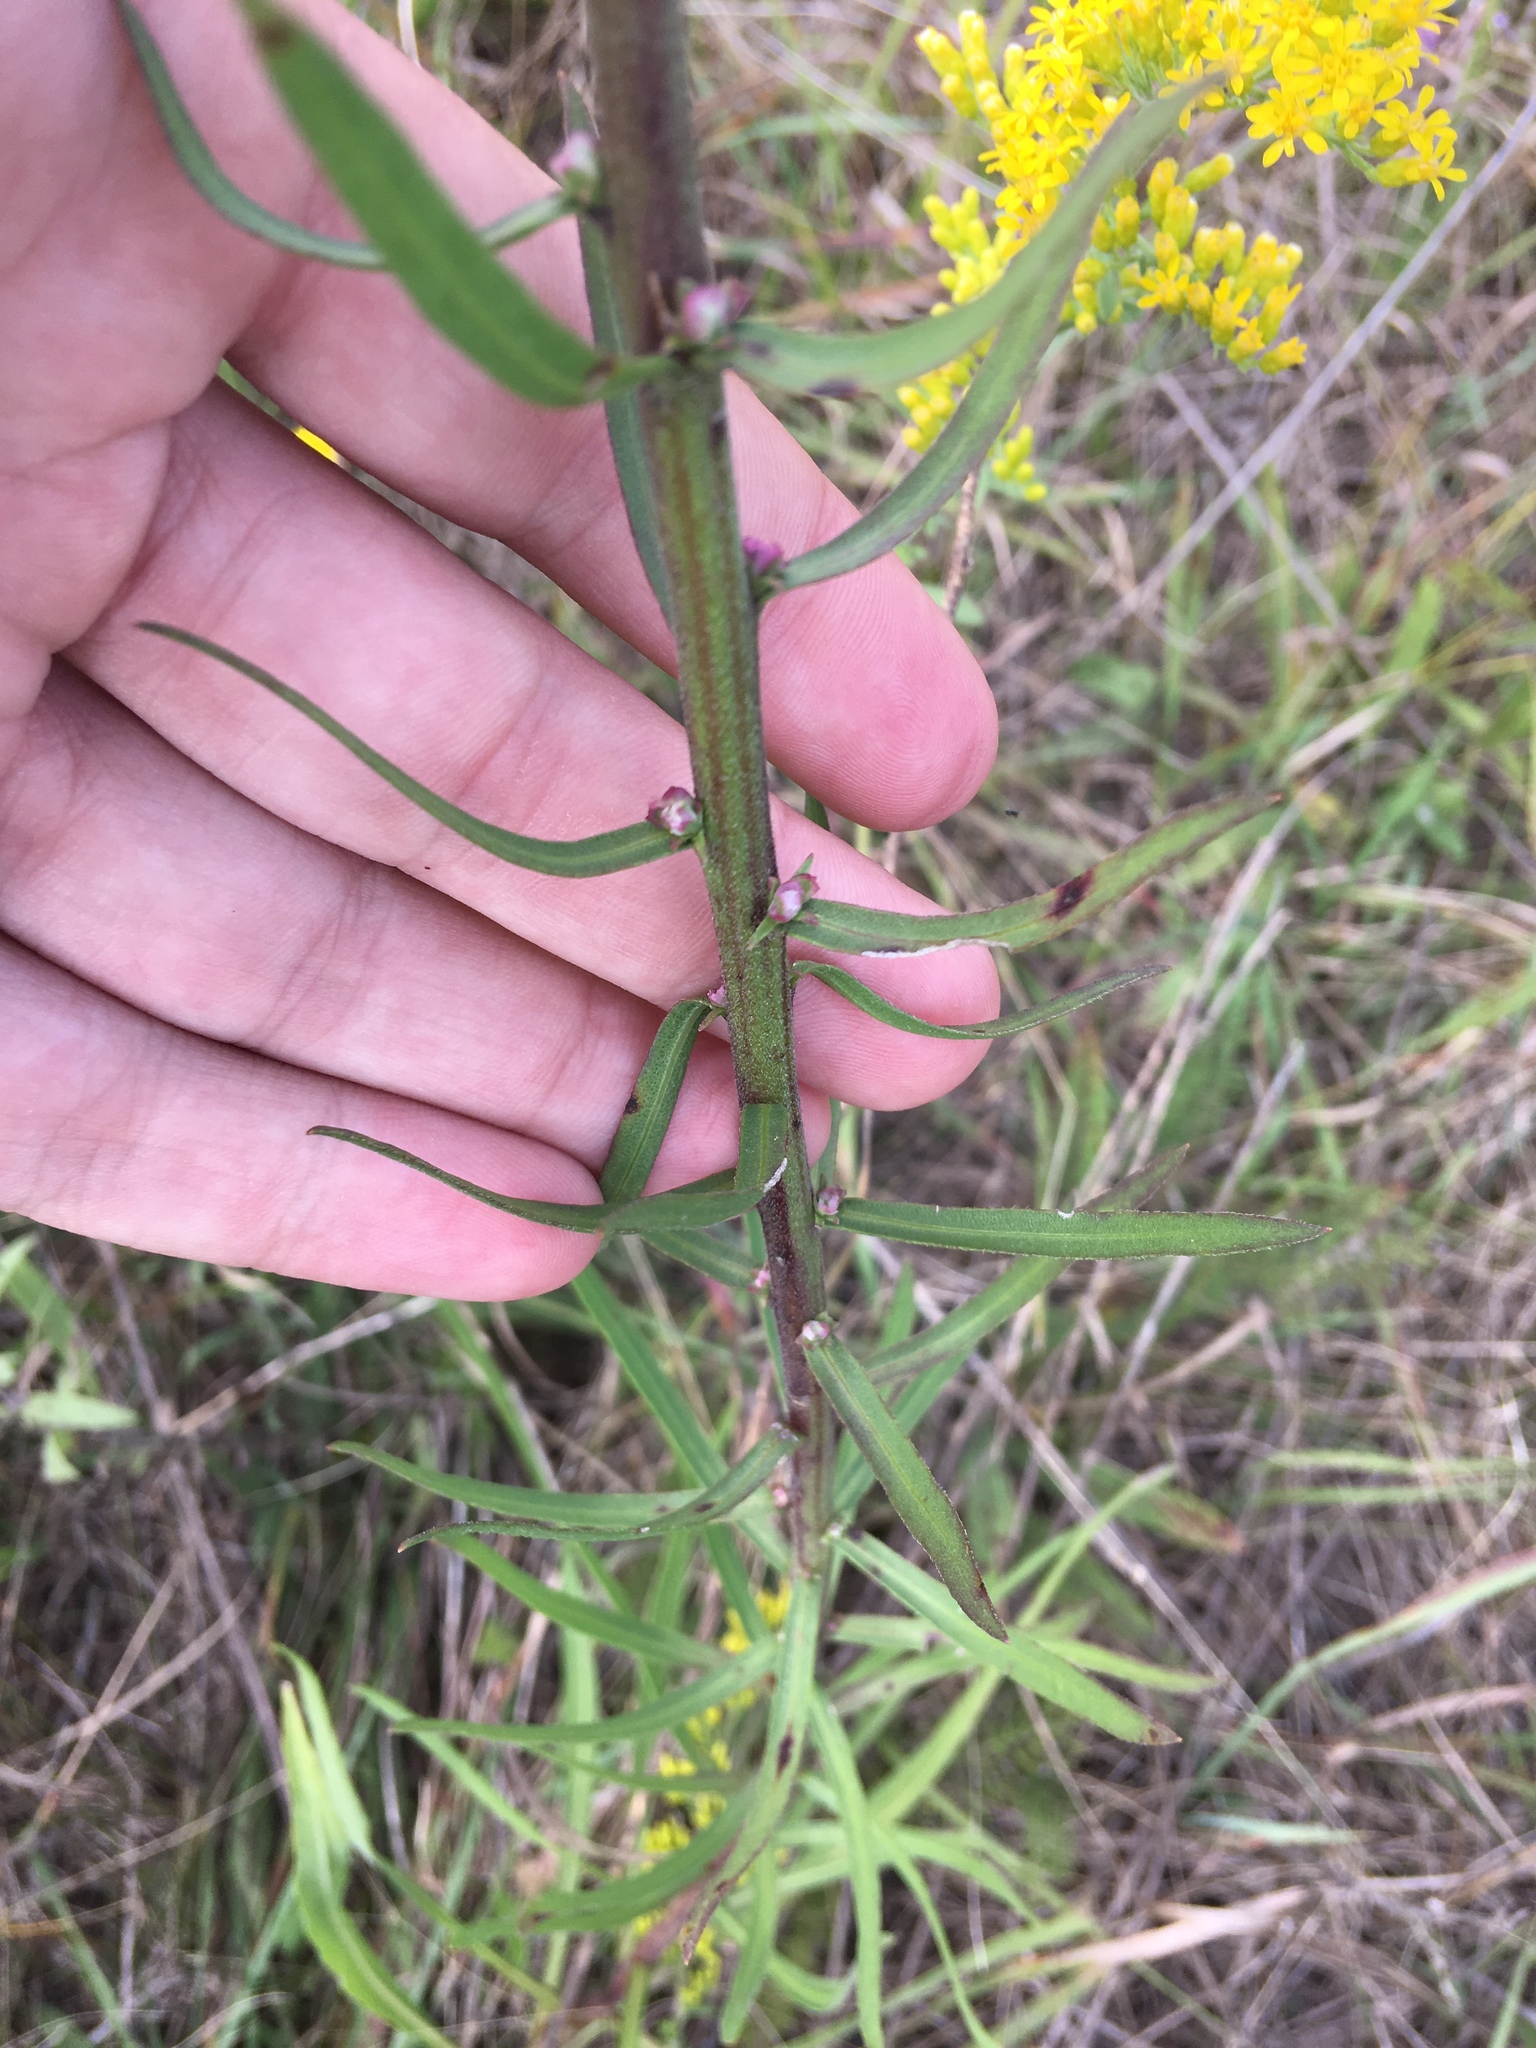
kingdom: Plantae
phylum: Tracheophyta
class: Magnoliopsida
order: Asterales
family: Asteraceae
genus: Liatris
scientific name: Liatris aspera
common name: Lacerate blazing-star
